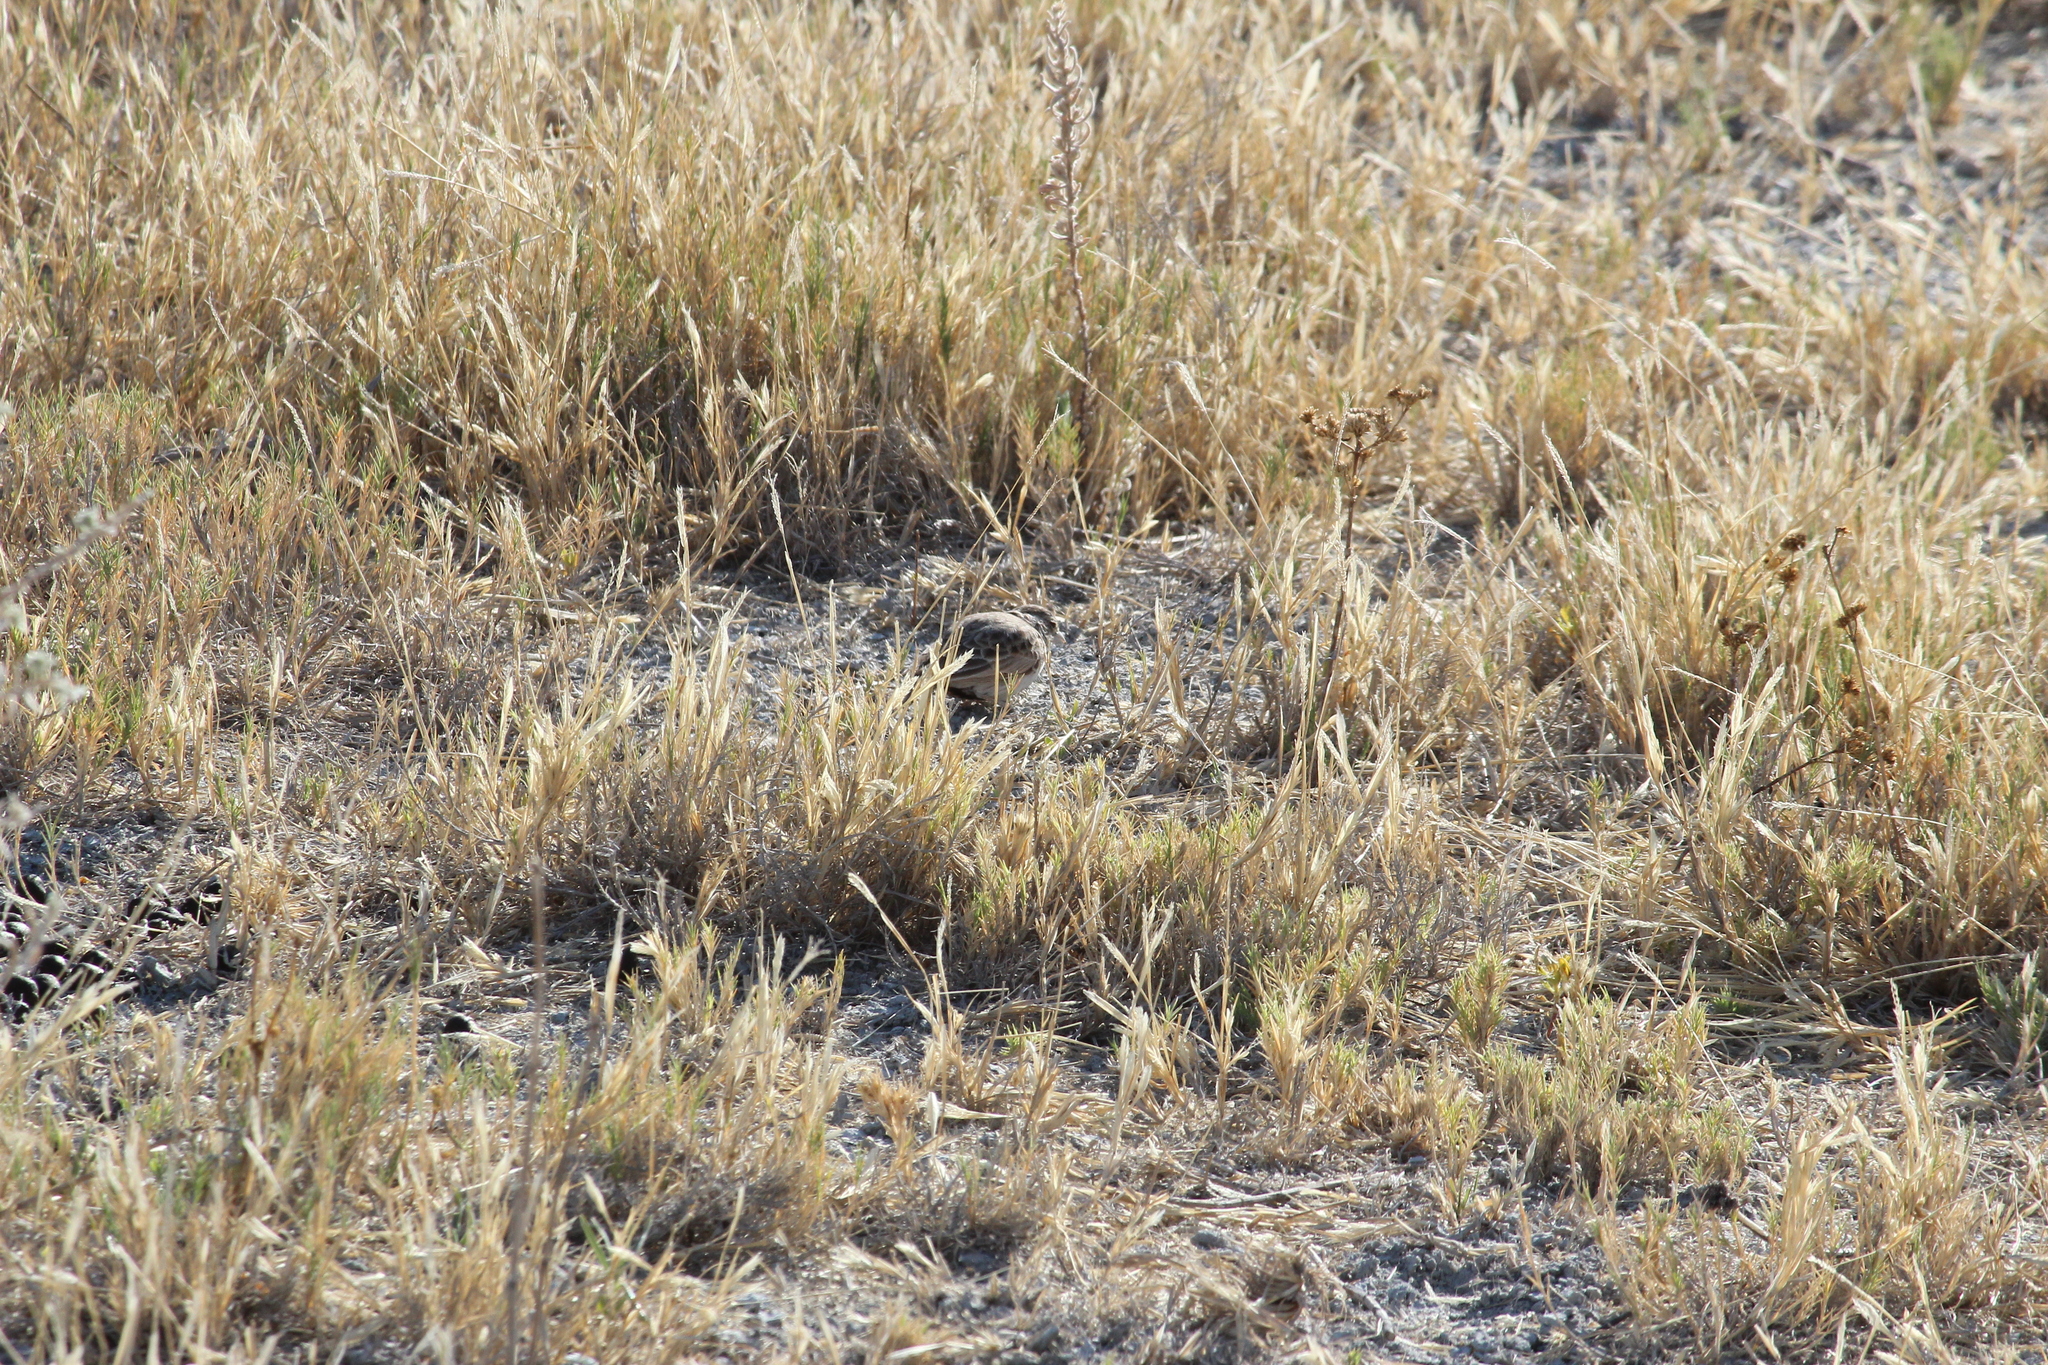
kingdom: Animalia
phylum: Chordata
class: Aves
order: Passeriformes
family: Alaudidae
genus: Eremopterix
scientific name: Eremopterix verticalis
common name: Grey-backed sparrow-lark
